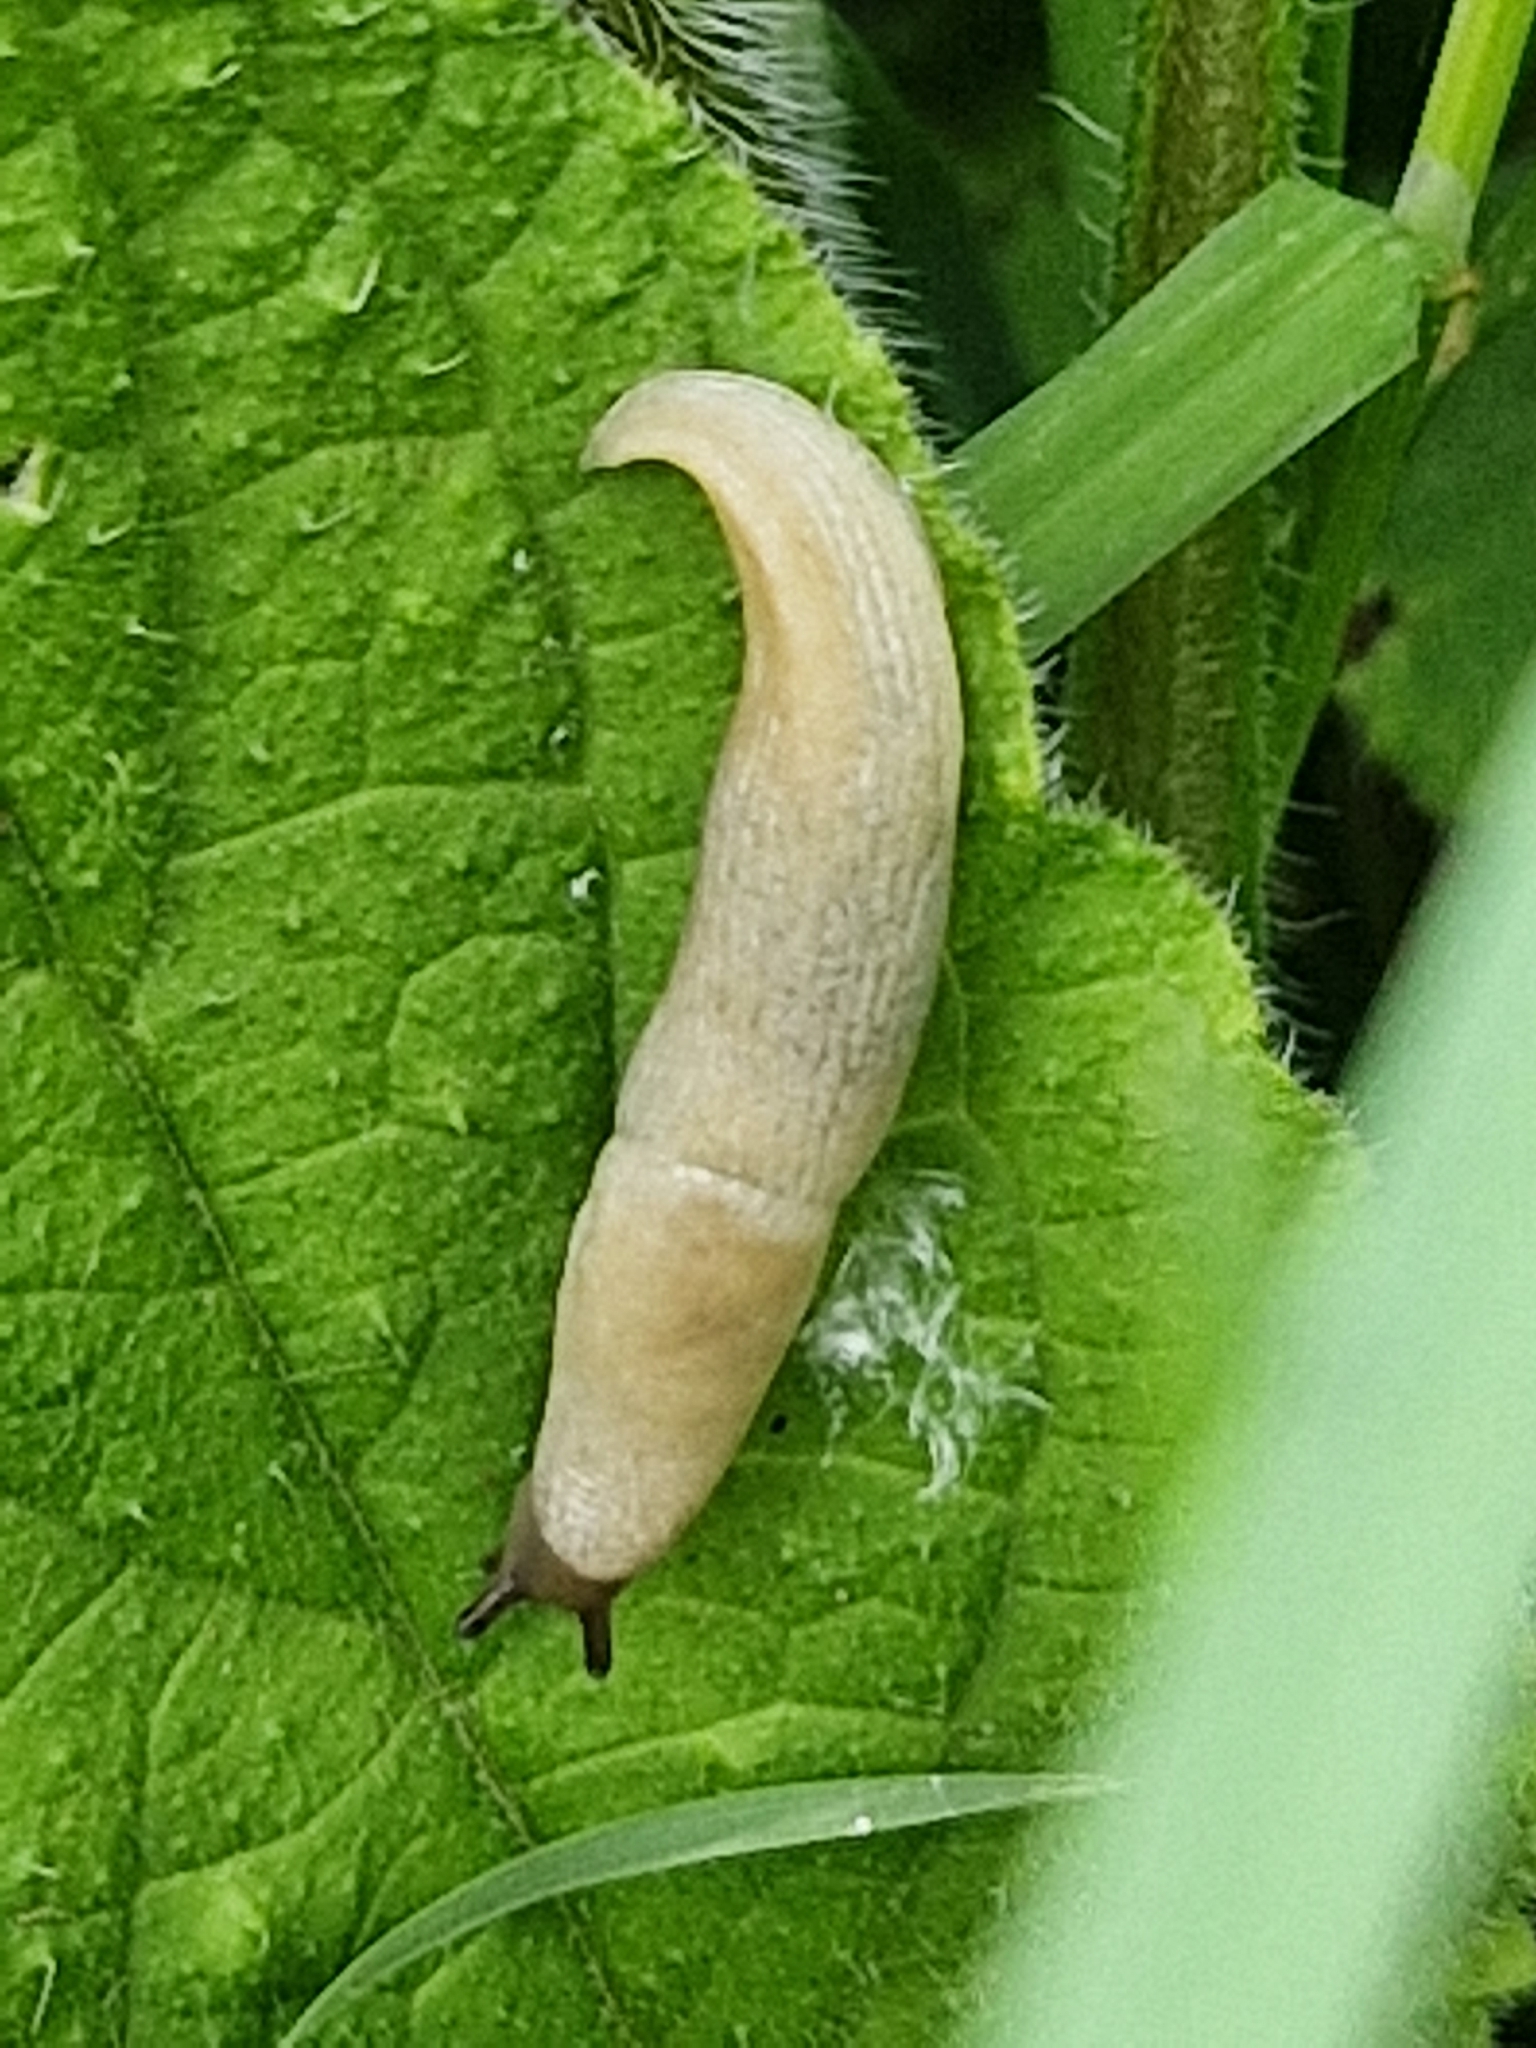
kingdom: Animalia
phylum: Mollusca
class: Gastropoda
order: Stylommatophora
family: Agriolimacidae
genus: Deroceras
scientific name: Deroceras reticulatum
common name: Gray field slug
